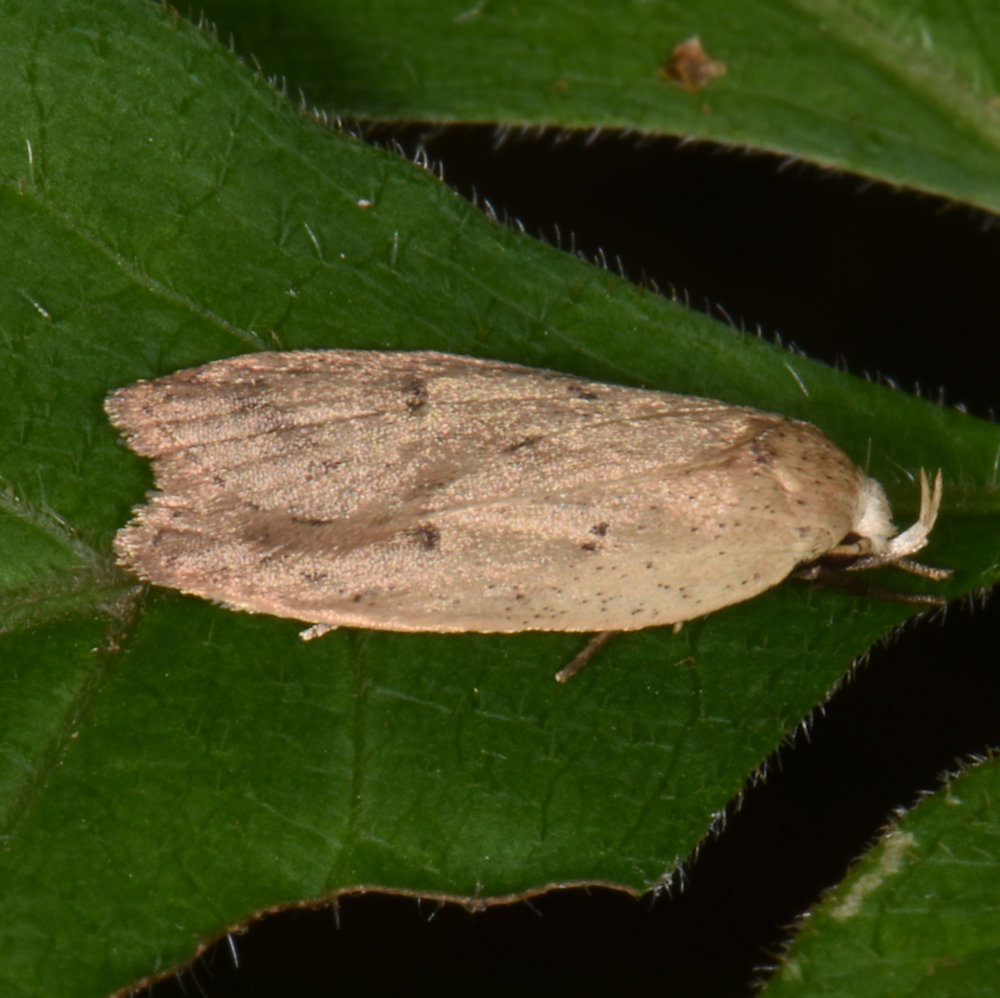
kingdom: Animalia
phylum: Arthropoda
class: Insecta
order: Lepidoptera
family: Peleopodidae
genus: Machimia
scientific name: Machimia tentoriferella
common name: Gold-striped leaftier moth
